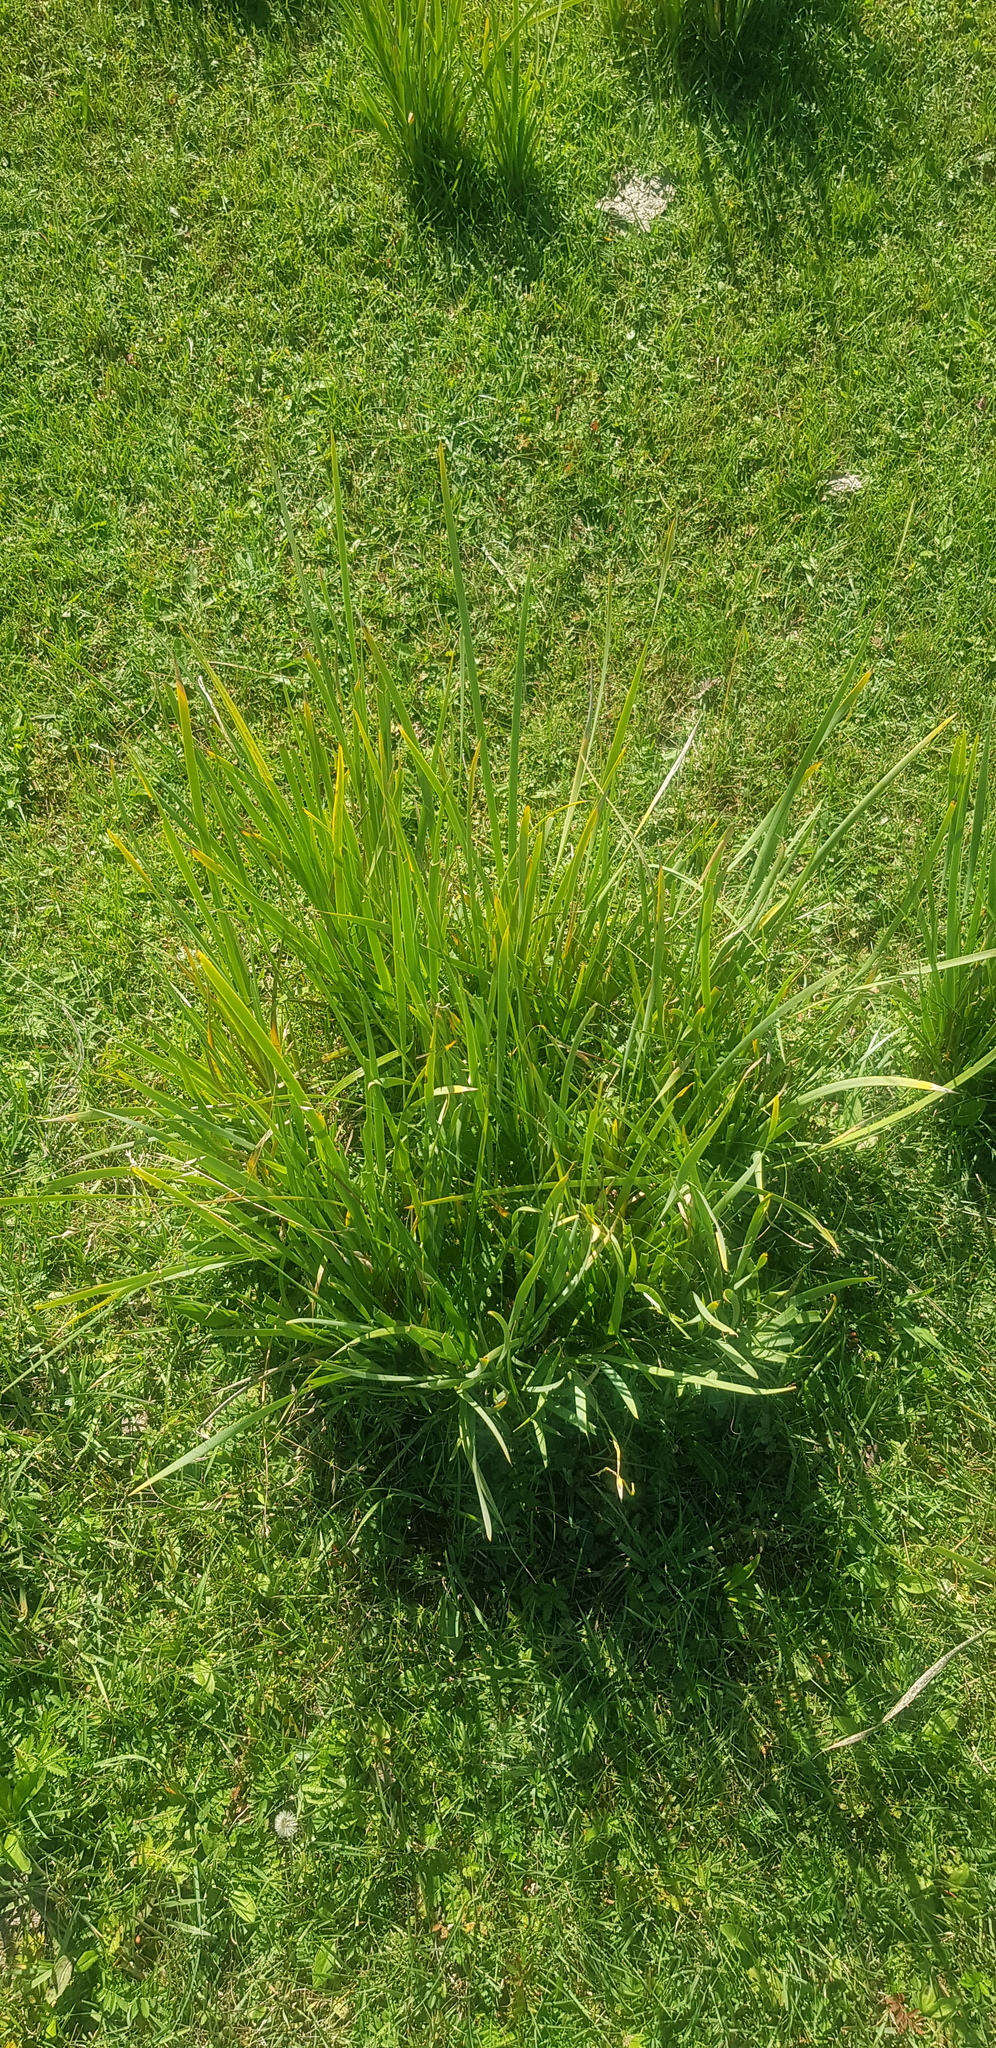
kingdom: Plantae
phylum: Tracheophyta
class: Liliopsida
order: Asparagales
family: Iridaceae
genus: Iris
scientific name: Iris lactea
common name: White-flower chinese iris
